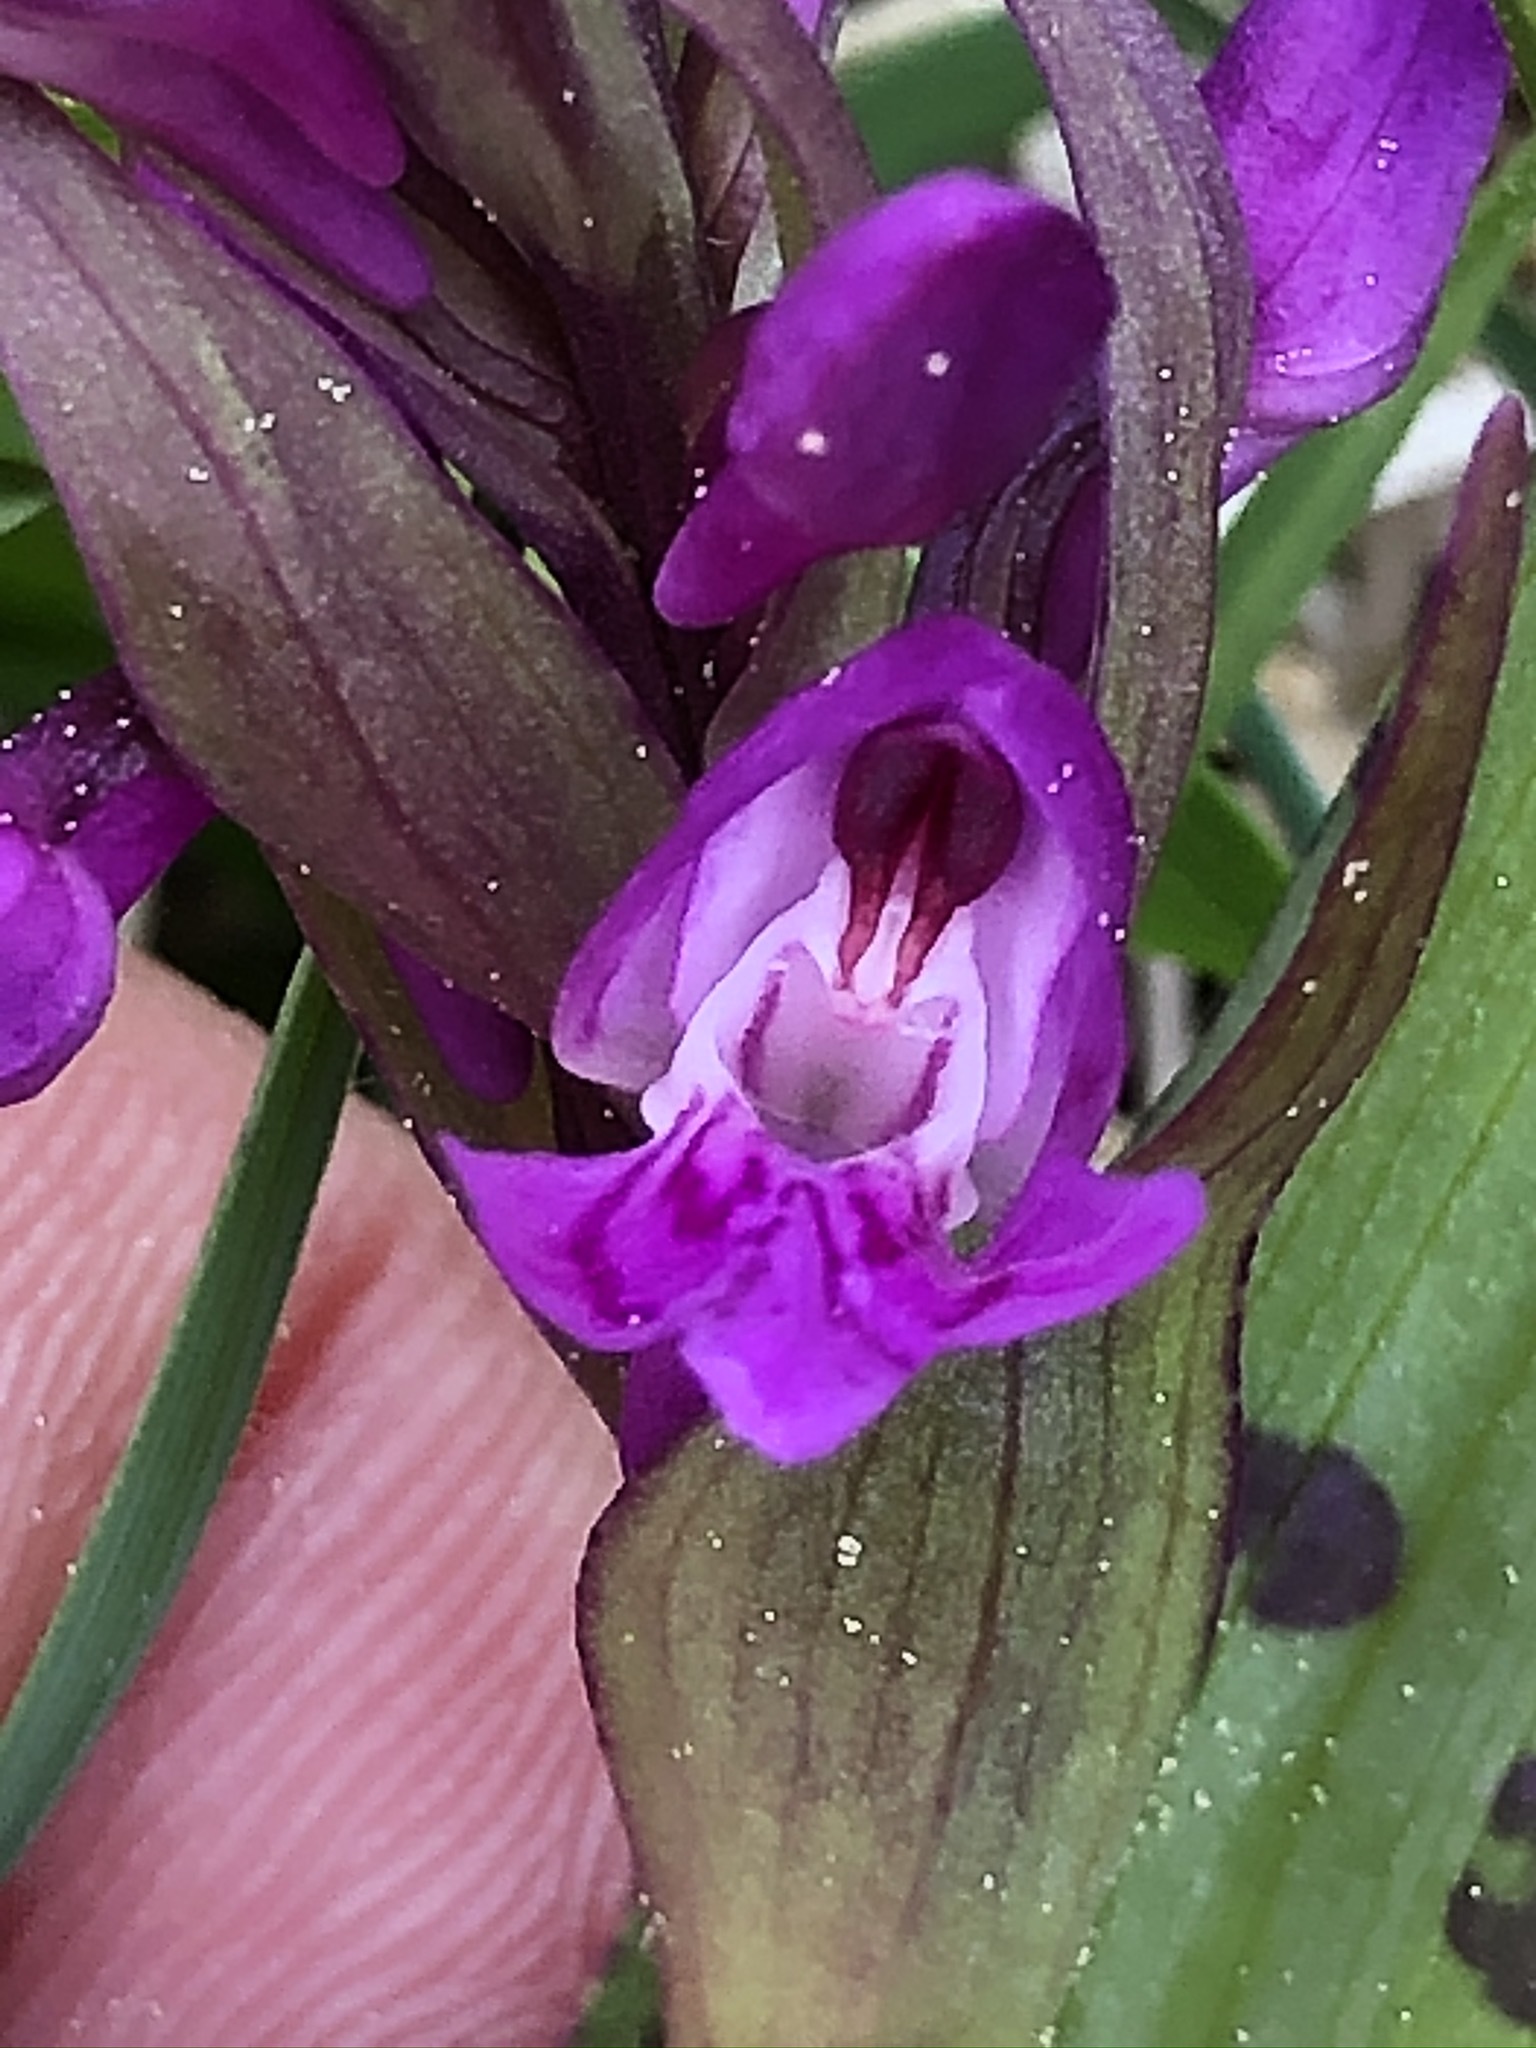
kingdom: Plantae
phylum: Tracheophyta
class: Liliopsida
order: Asparagales
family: Orchidaceae
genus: Dactylorhiza
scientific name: Dactylorhiza majalis
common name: Marsh orchid
